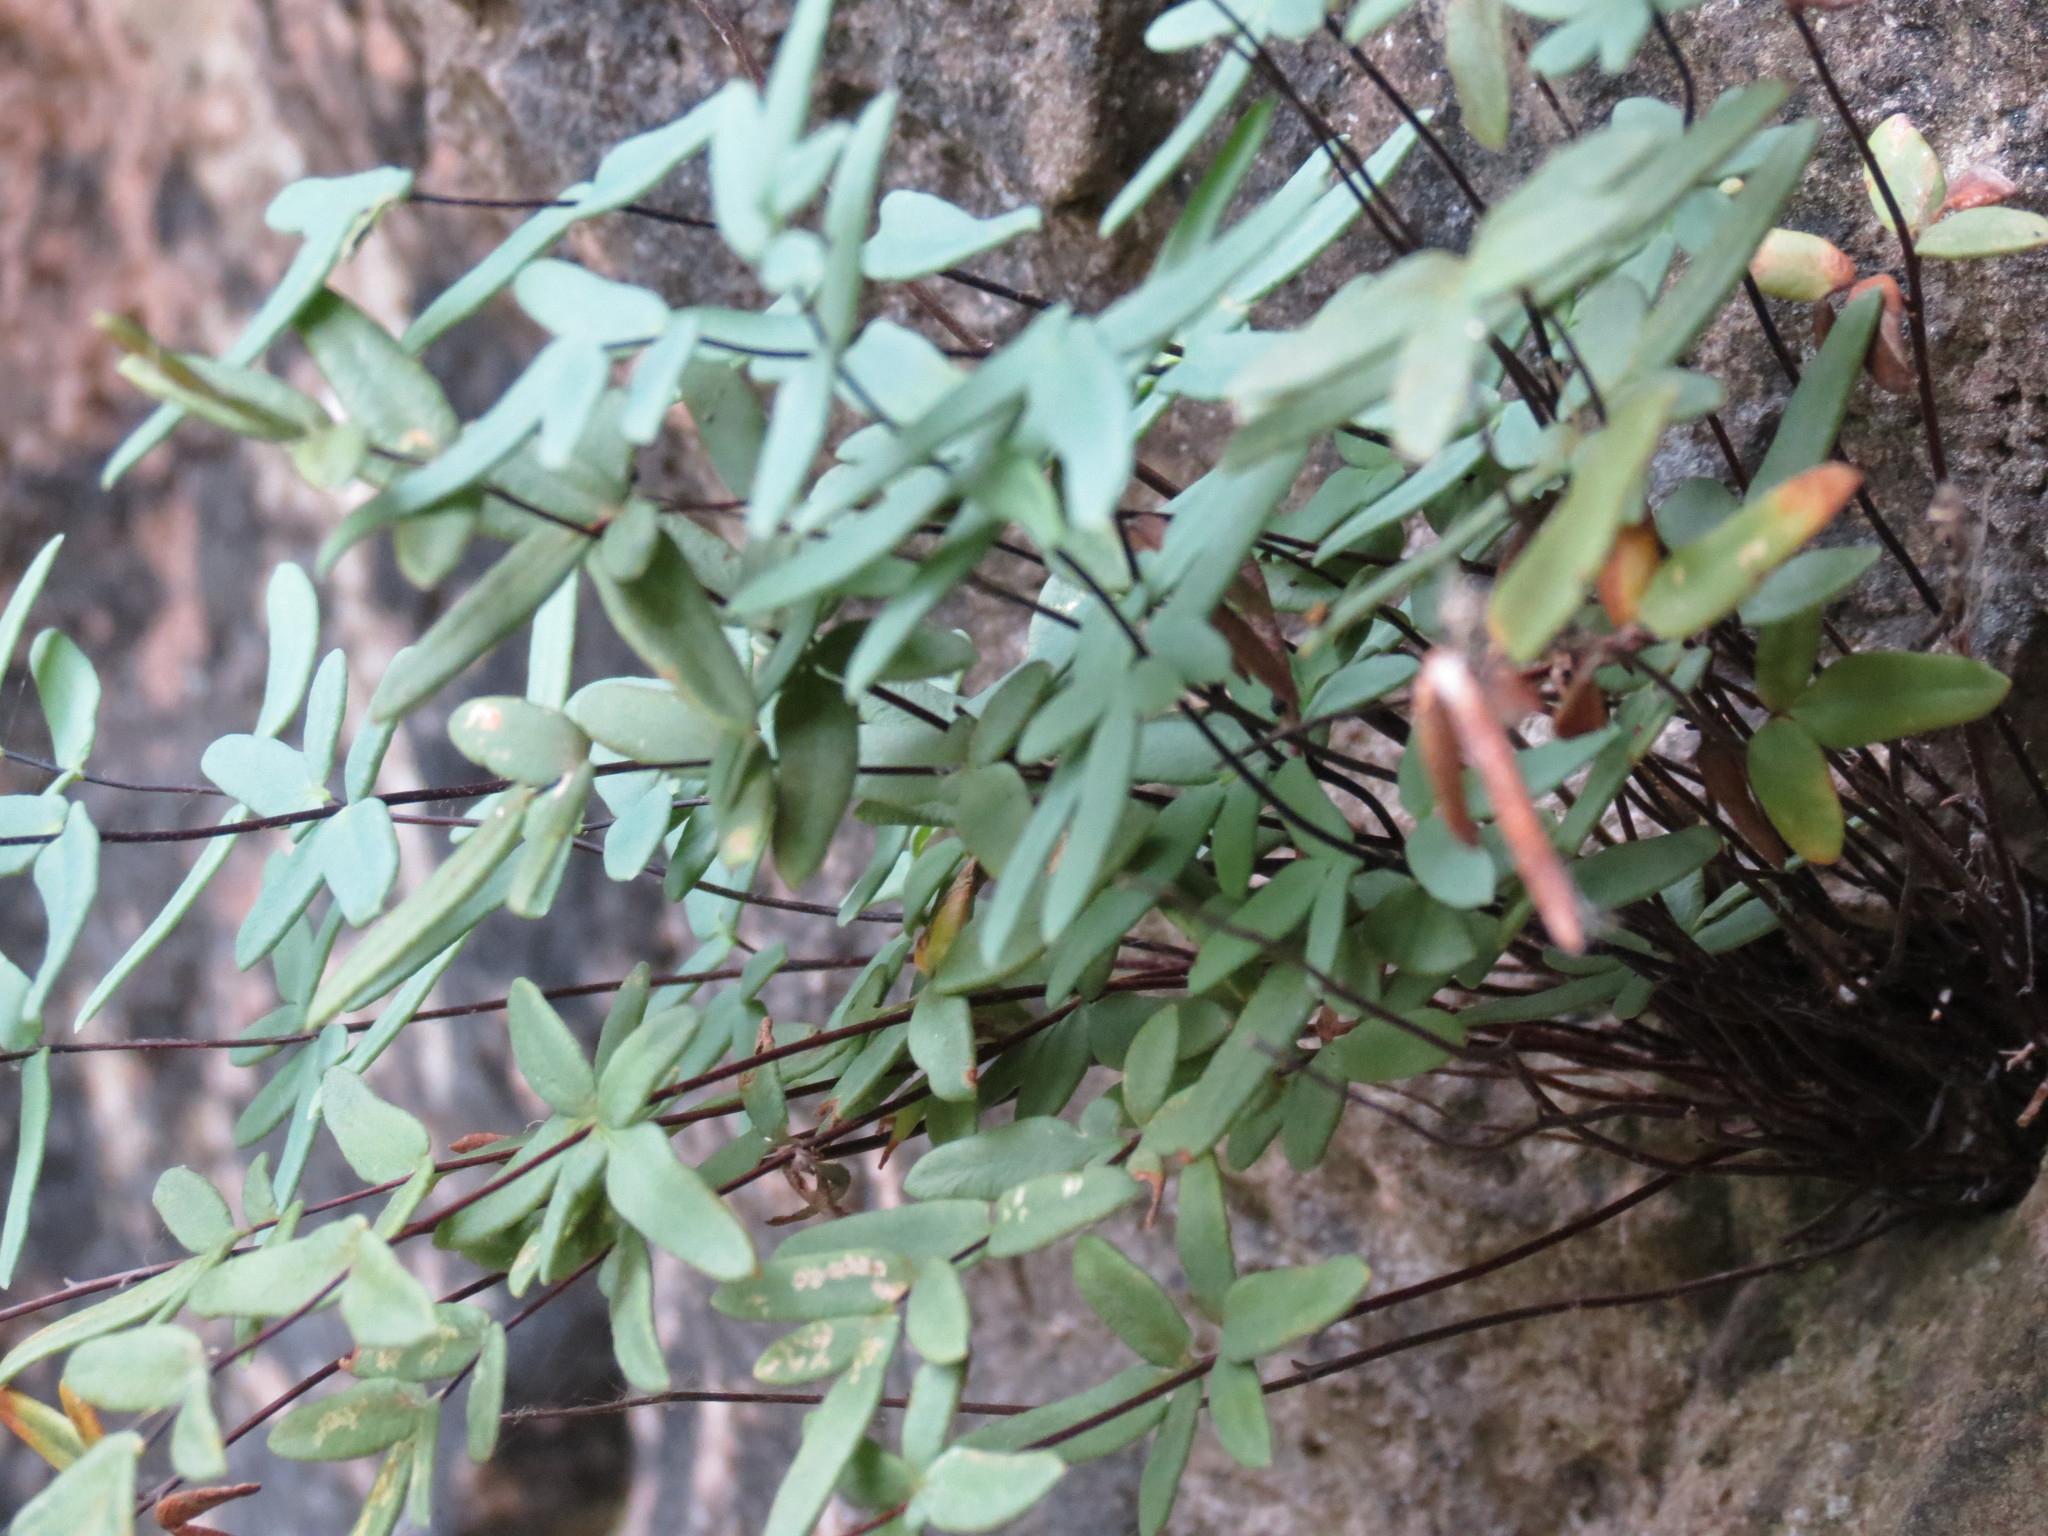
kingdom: Plantae
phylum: Tracheophyta
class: Polypodiopsida
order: Polypodiales
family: Pteridaceae
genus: Pellaea
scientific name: Pellaea glabella
